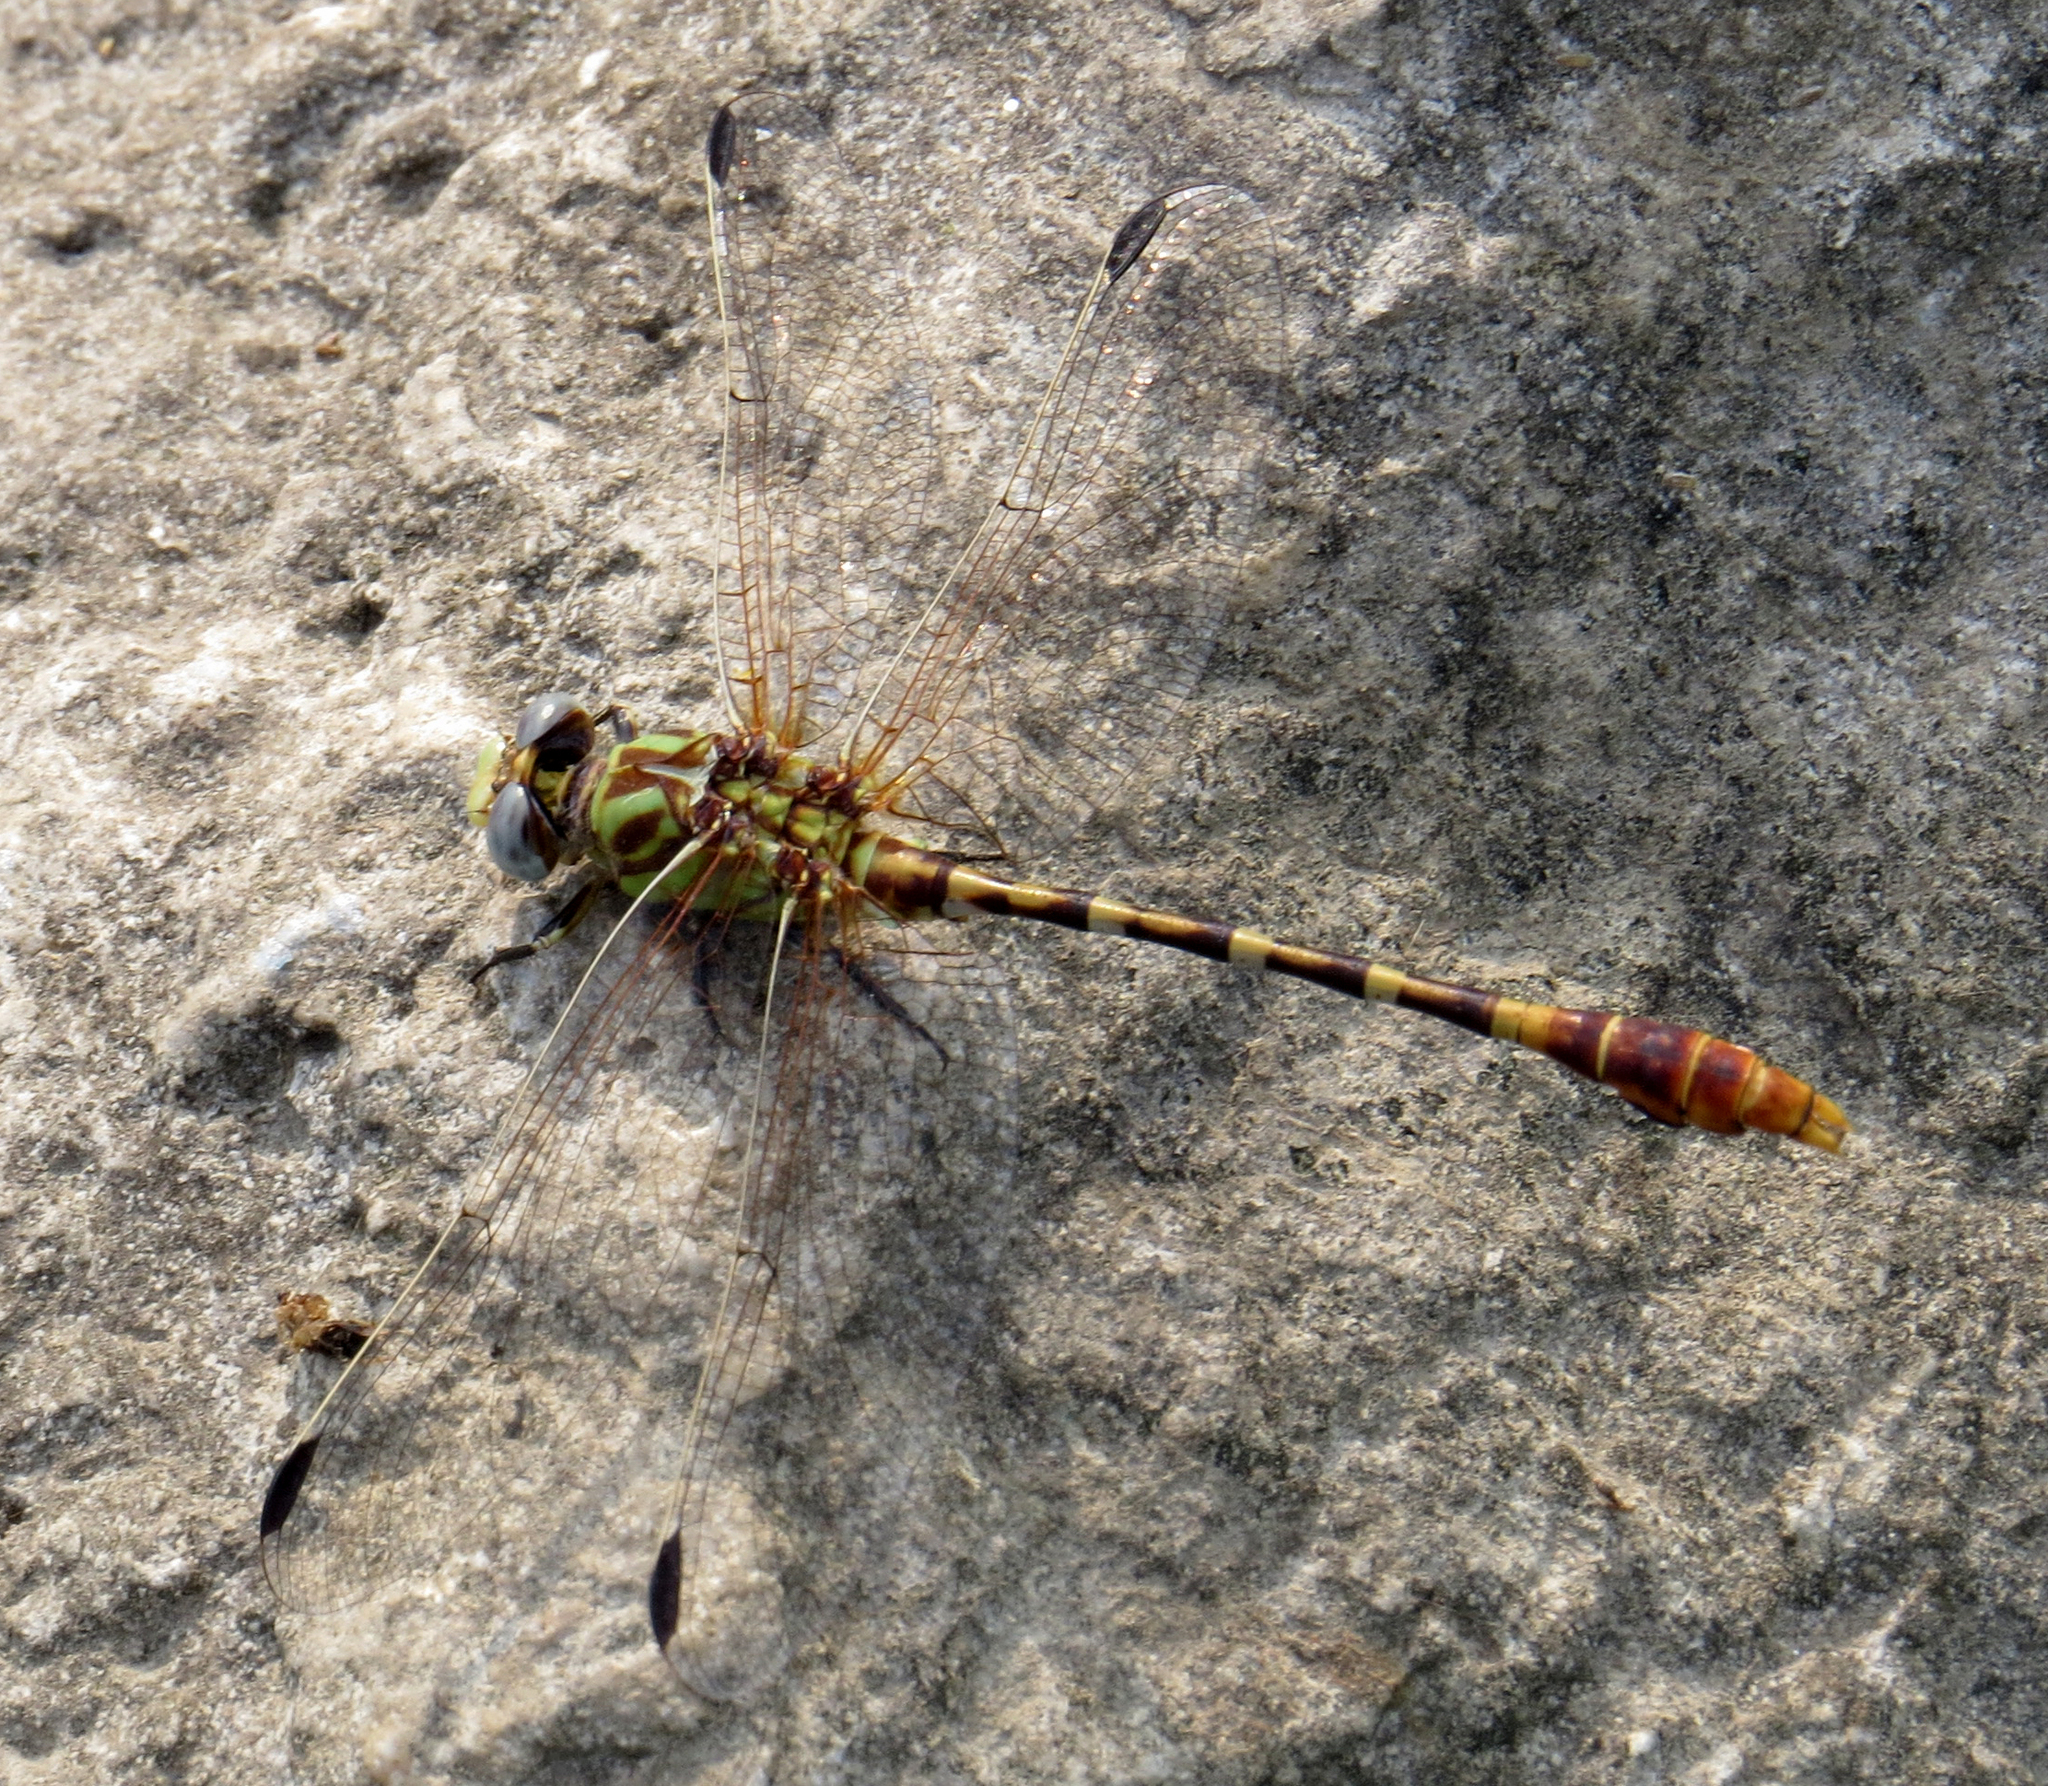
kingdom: Animalia
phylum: Arthropoda
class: Insecta
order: Odonata
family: Gomphidae
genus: Erpetogomphus
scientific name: Erpetogomphus designatus
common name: Eastern ringtail
